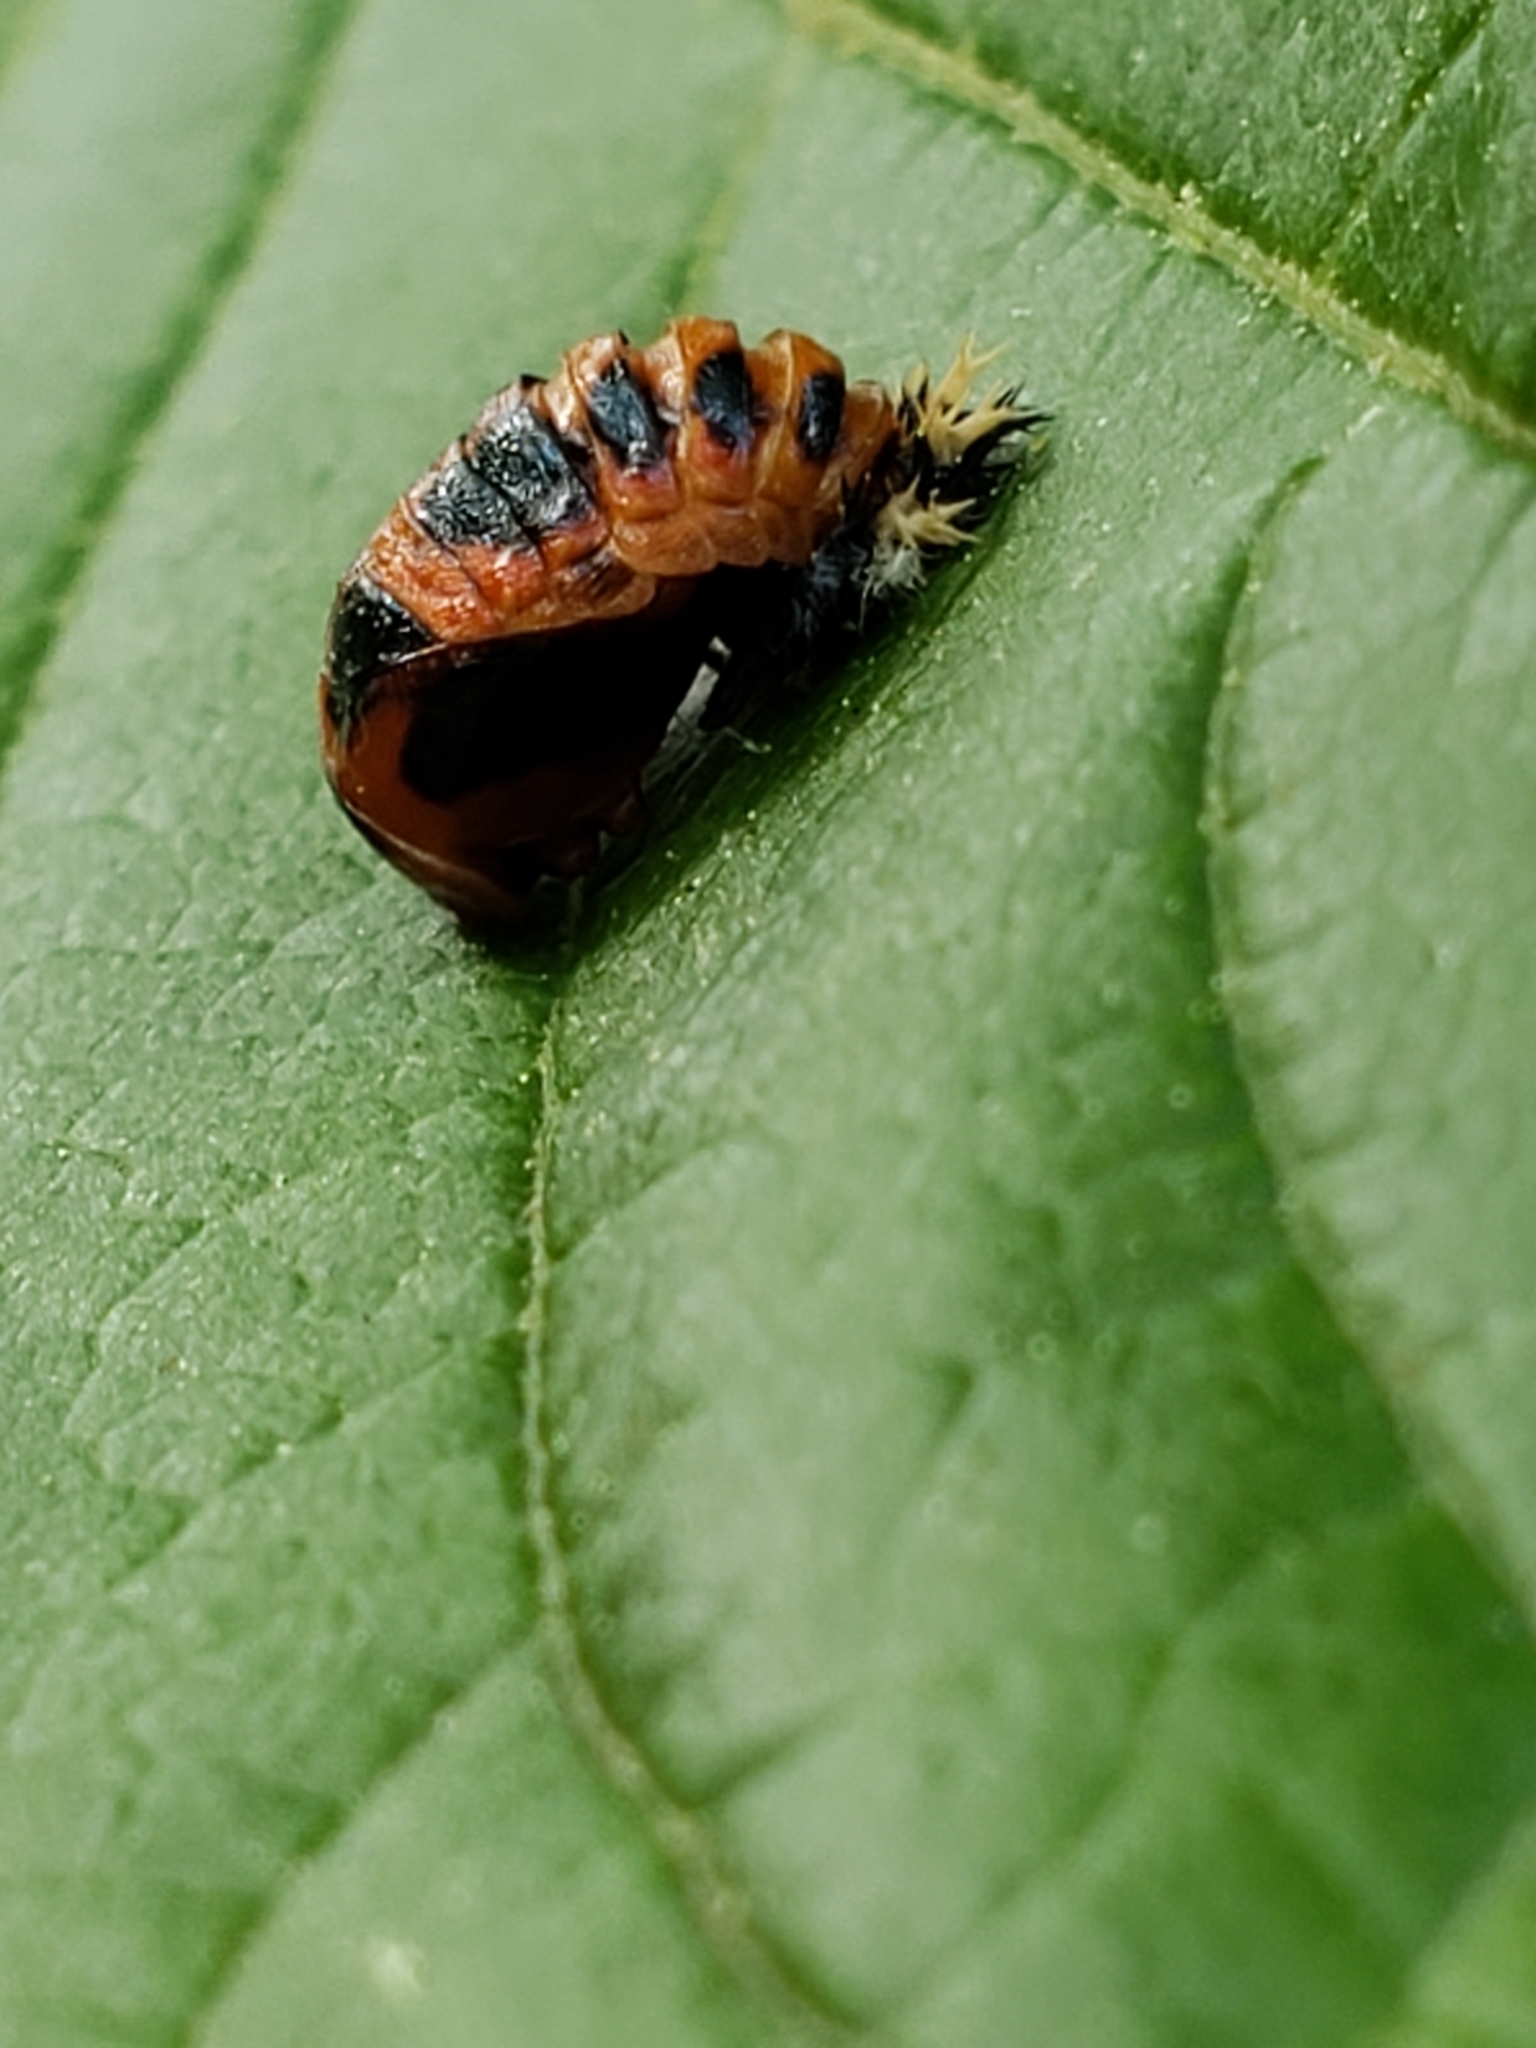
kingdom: Animalia
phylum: Arthropoda
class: Insecta
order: Coleoptera
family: Coccinellidae
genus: Harmonia
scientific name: Harmonia axyridis
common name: Harlequin ladybird
